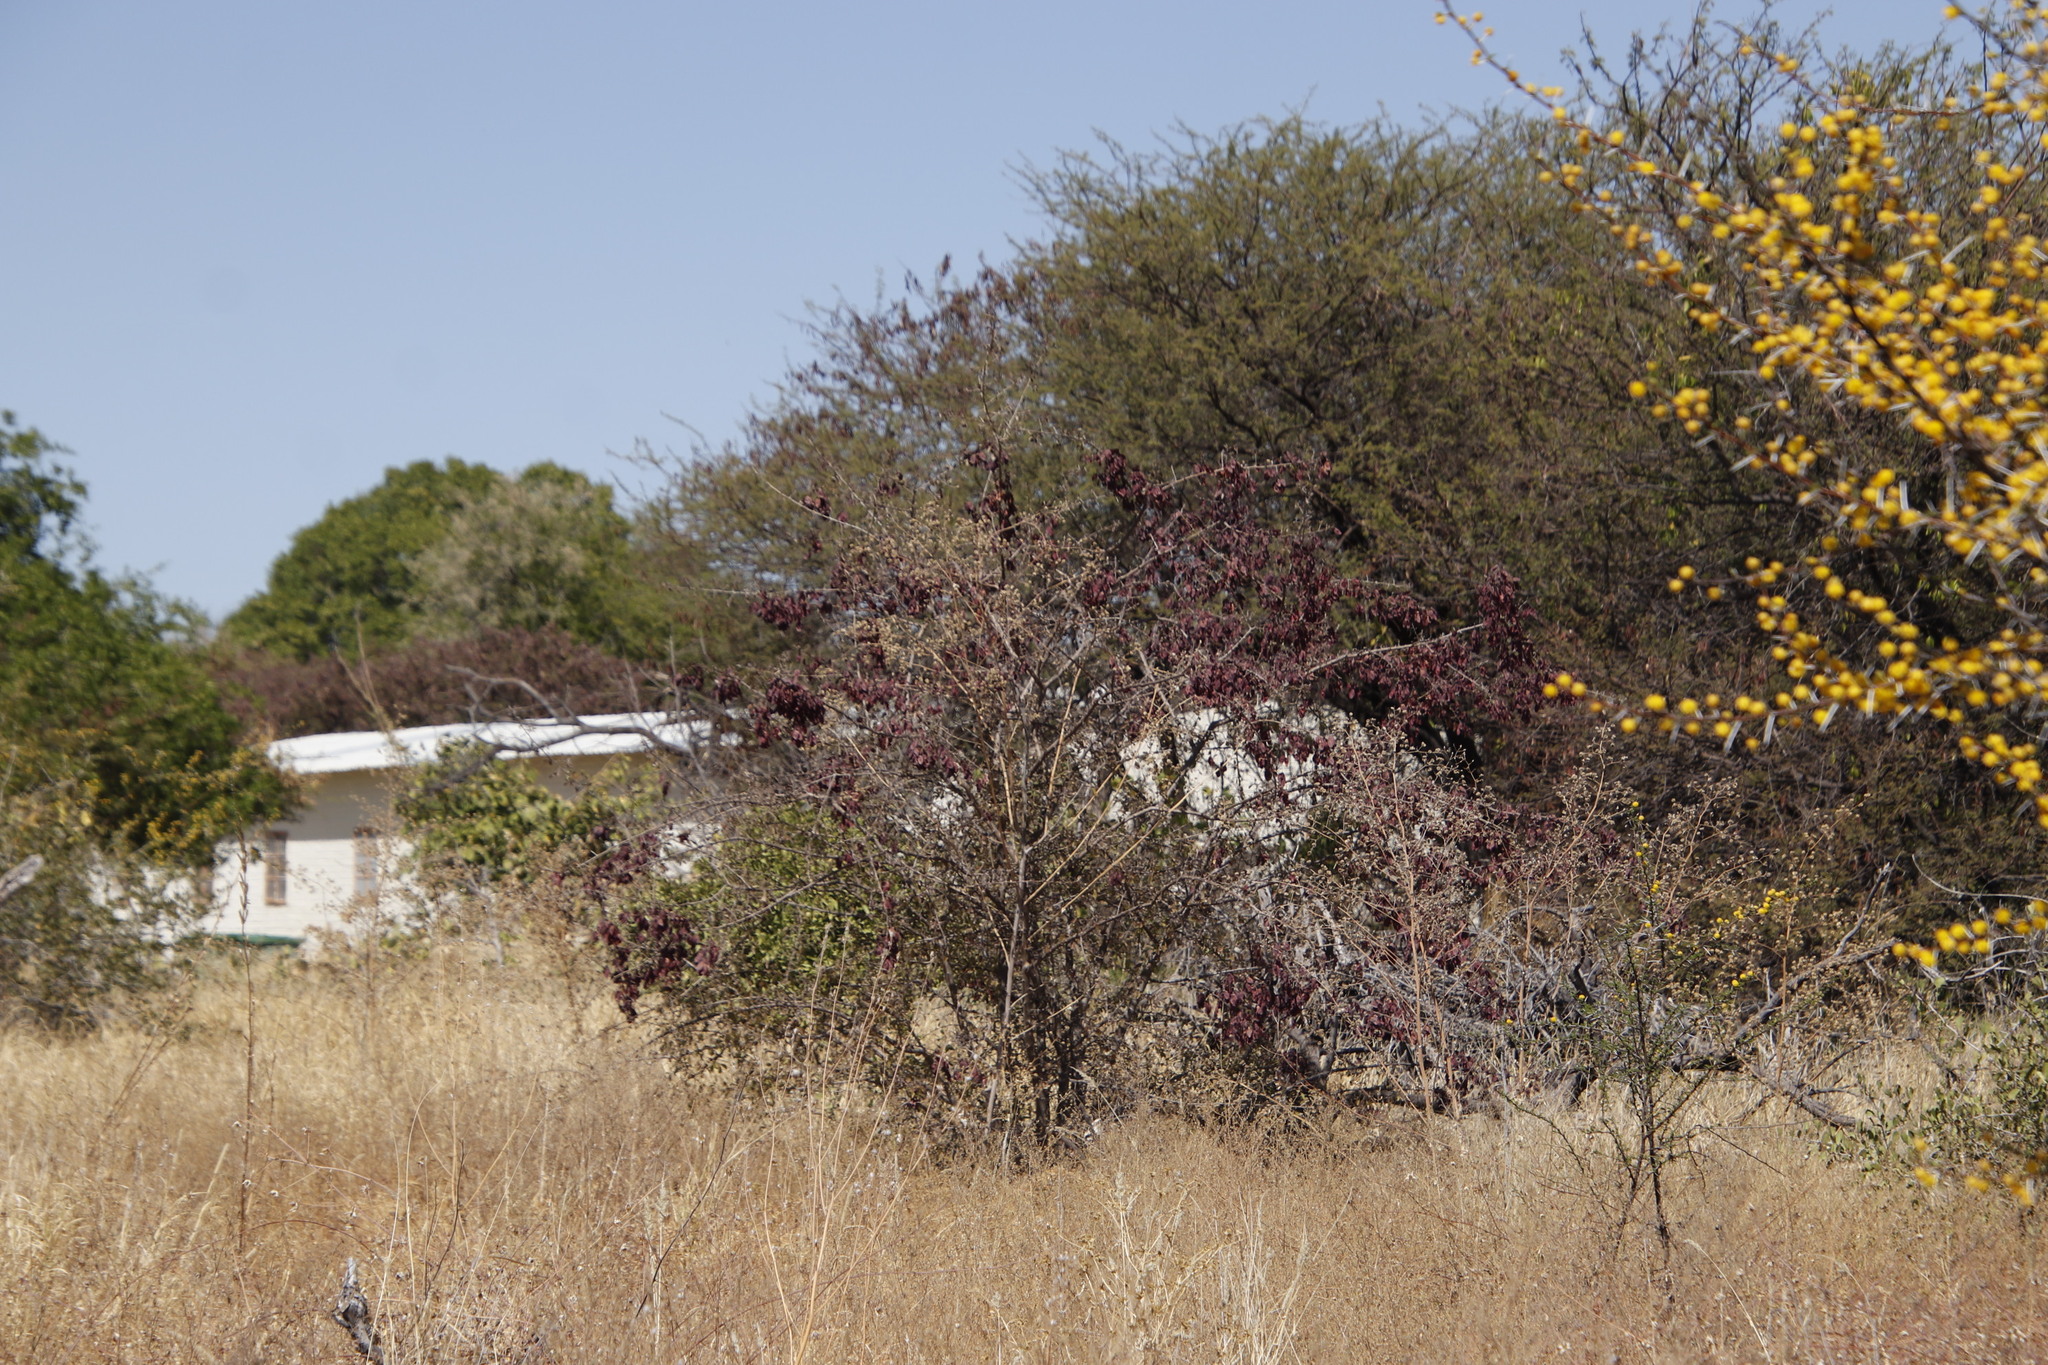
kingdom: Plantae
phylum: Tracheophyta
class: Magnoliopsida
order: Myrtales
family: Combretaceae
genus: Terminalia
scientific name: Terminalia prunioides
